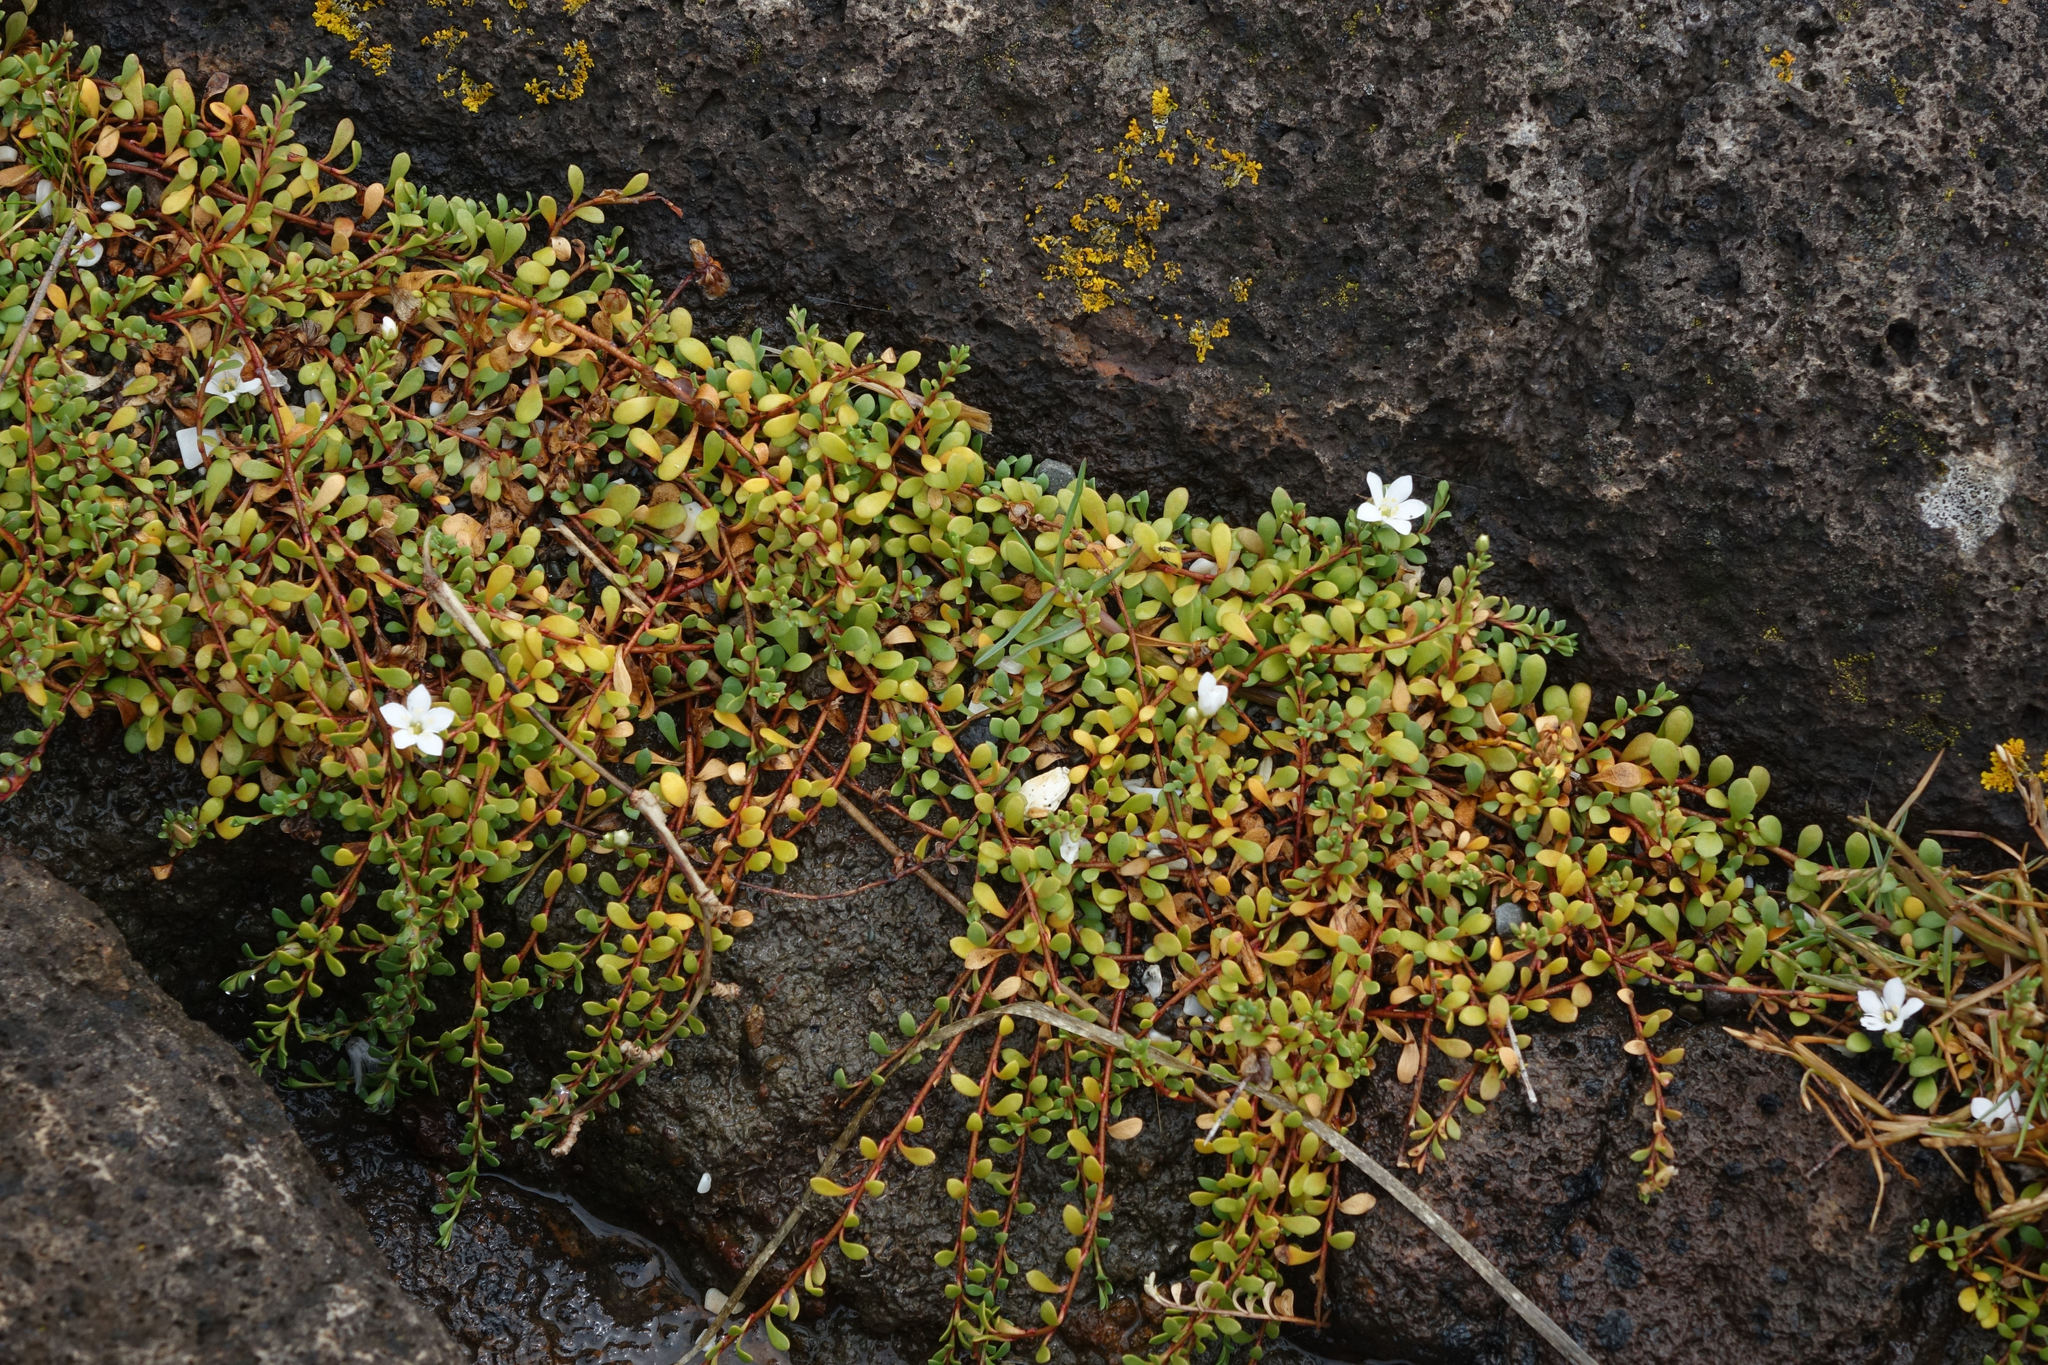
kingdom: Plantae
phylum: Tracheophyta
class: Magnoliopsida
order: Ericales
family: Primulaceae
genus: Samolus
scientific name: Samolus repens
